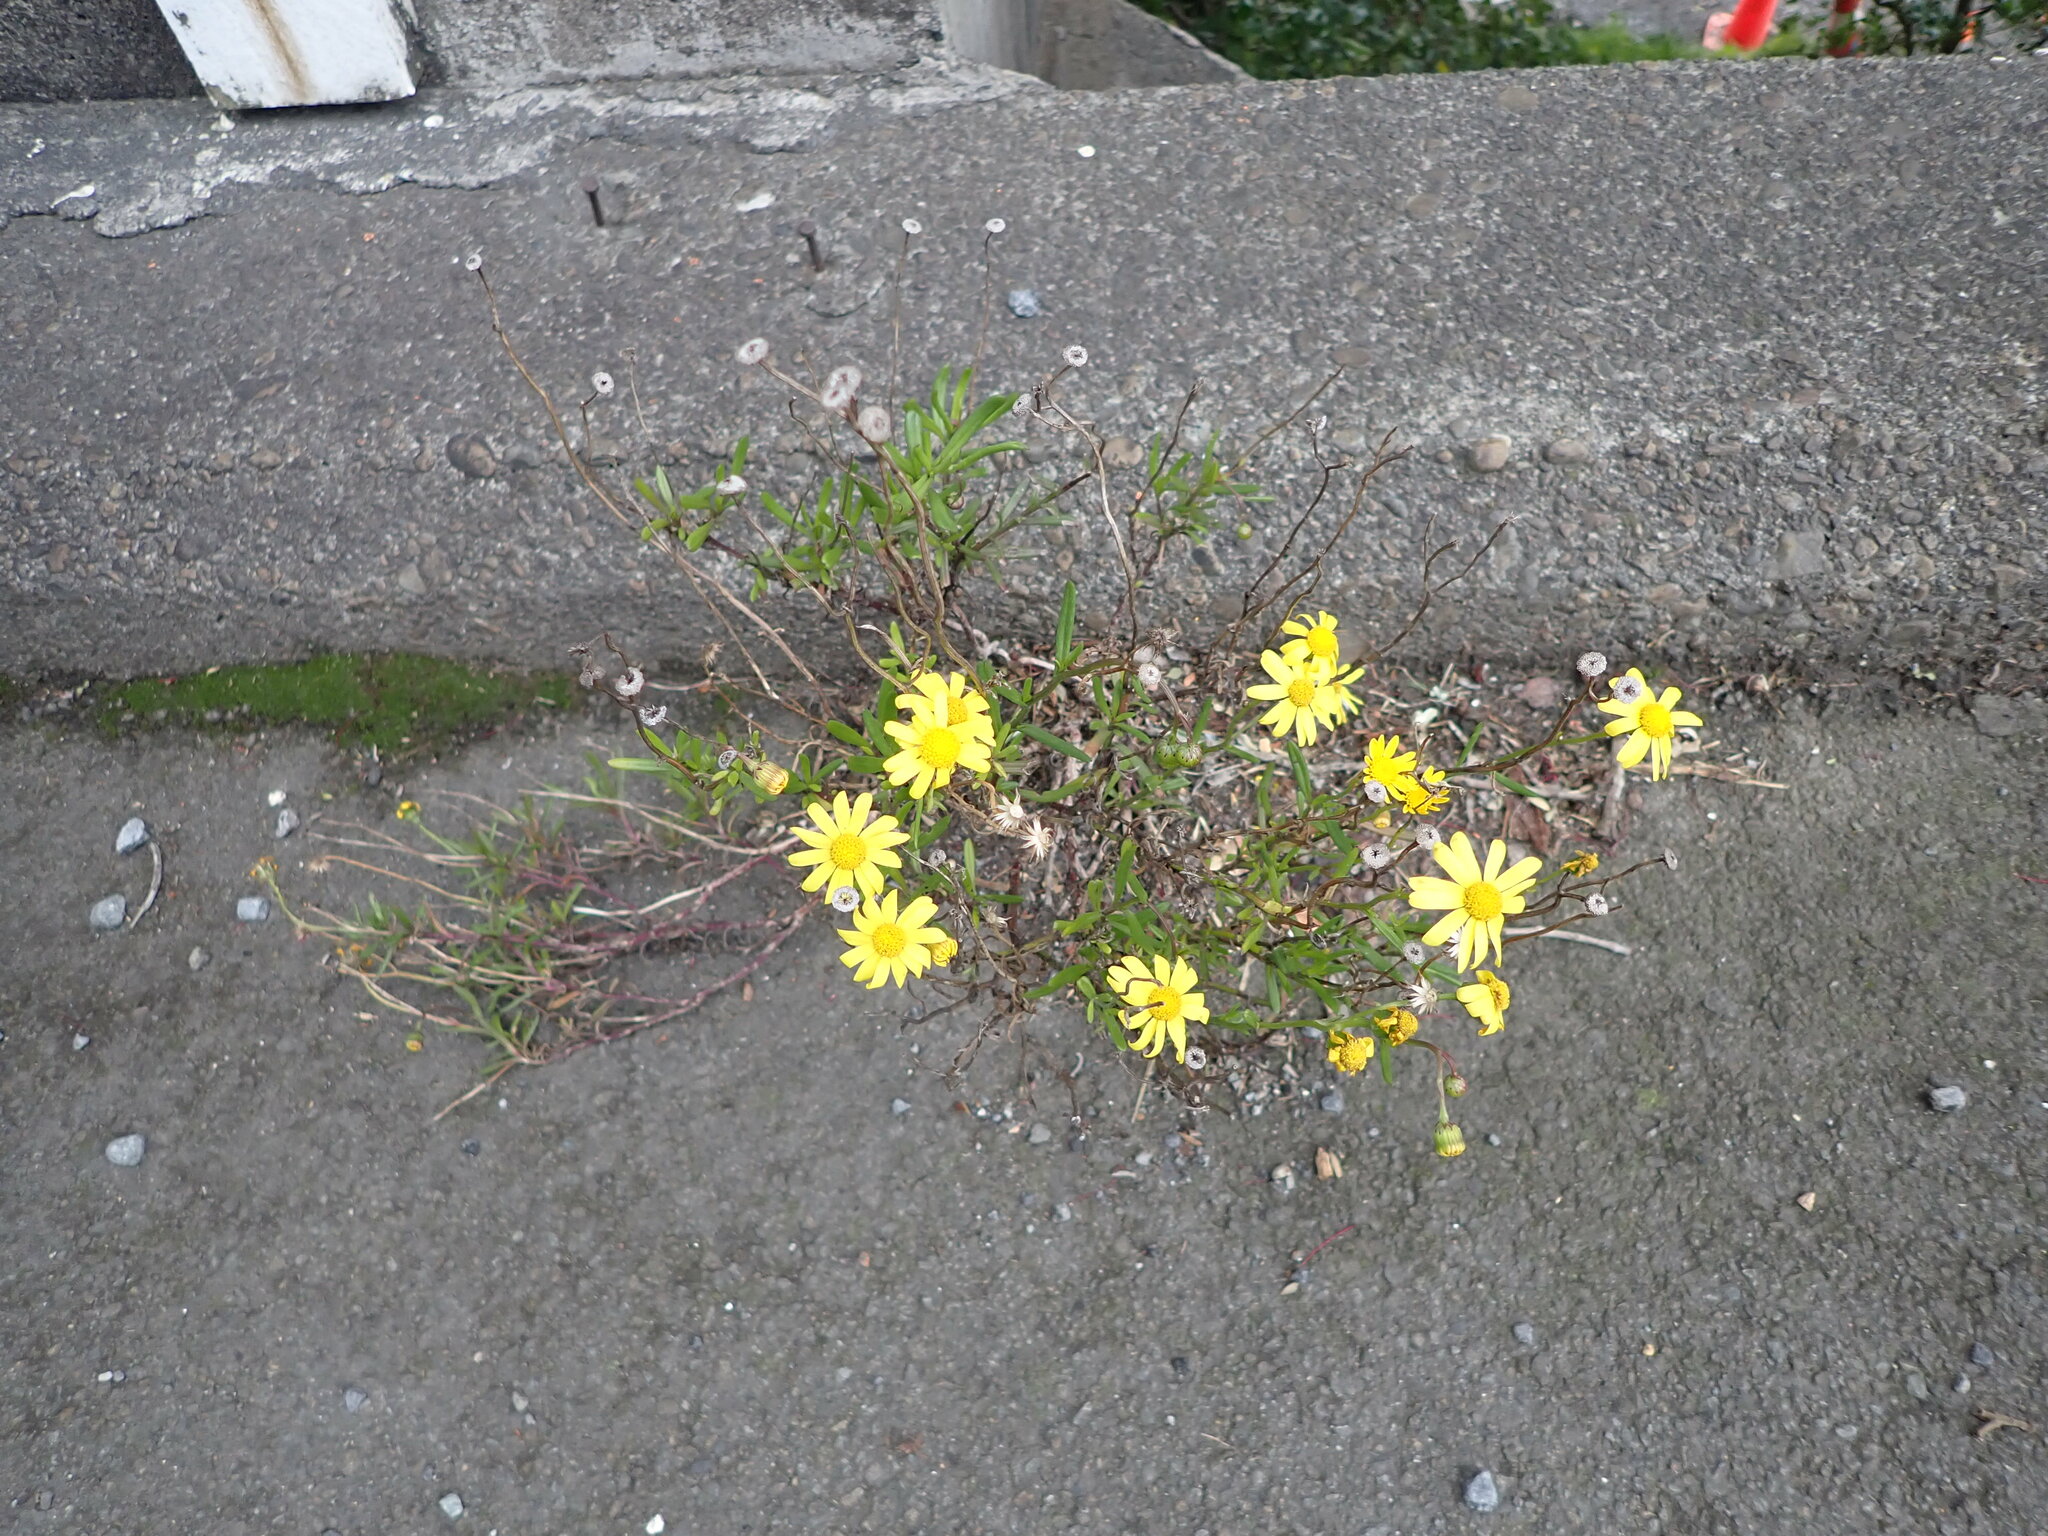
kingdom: Plantae
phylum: Tracheophyta
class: Magnoliopsida
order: Asterales
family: Asteraceae
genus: Senecio
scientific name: Senecio skirrhodon
